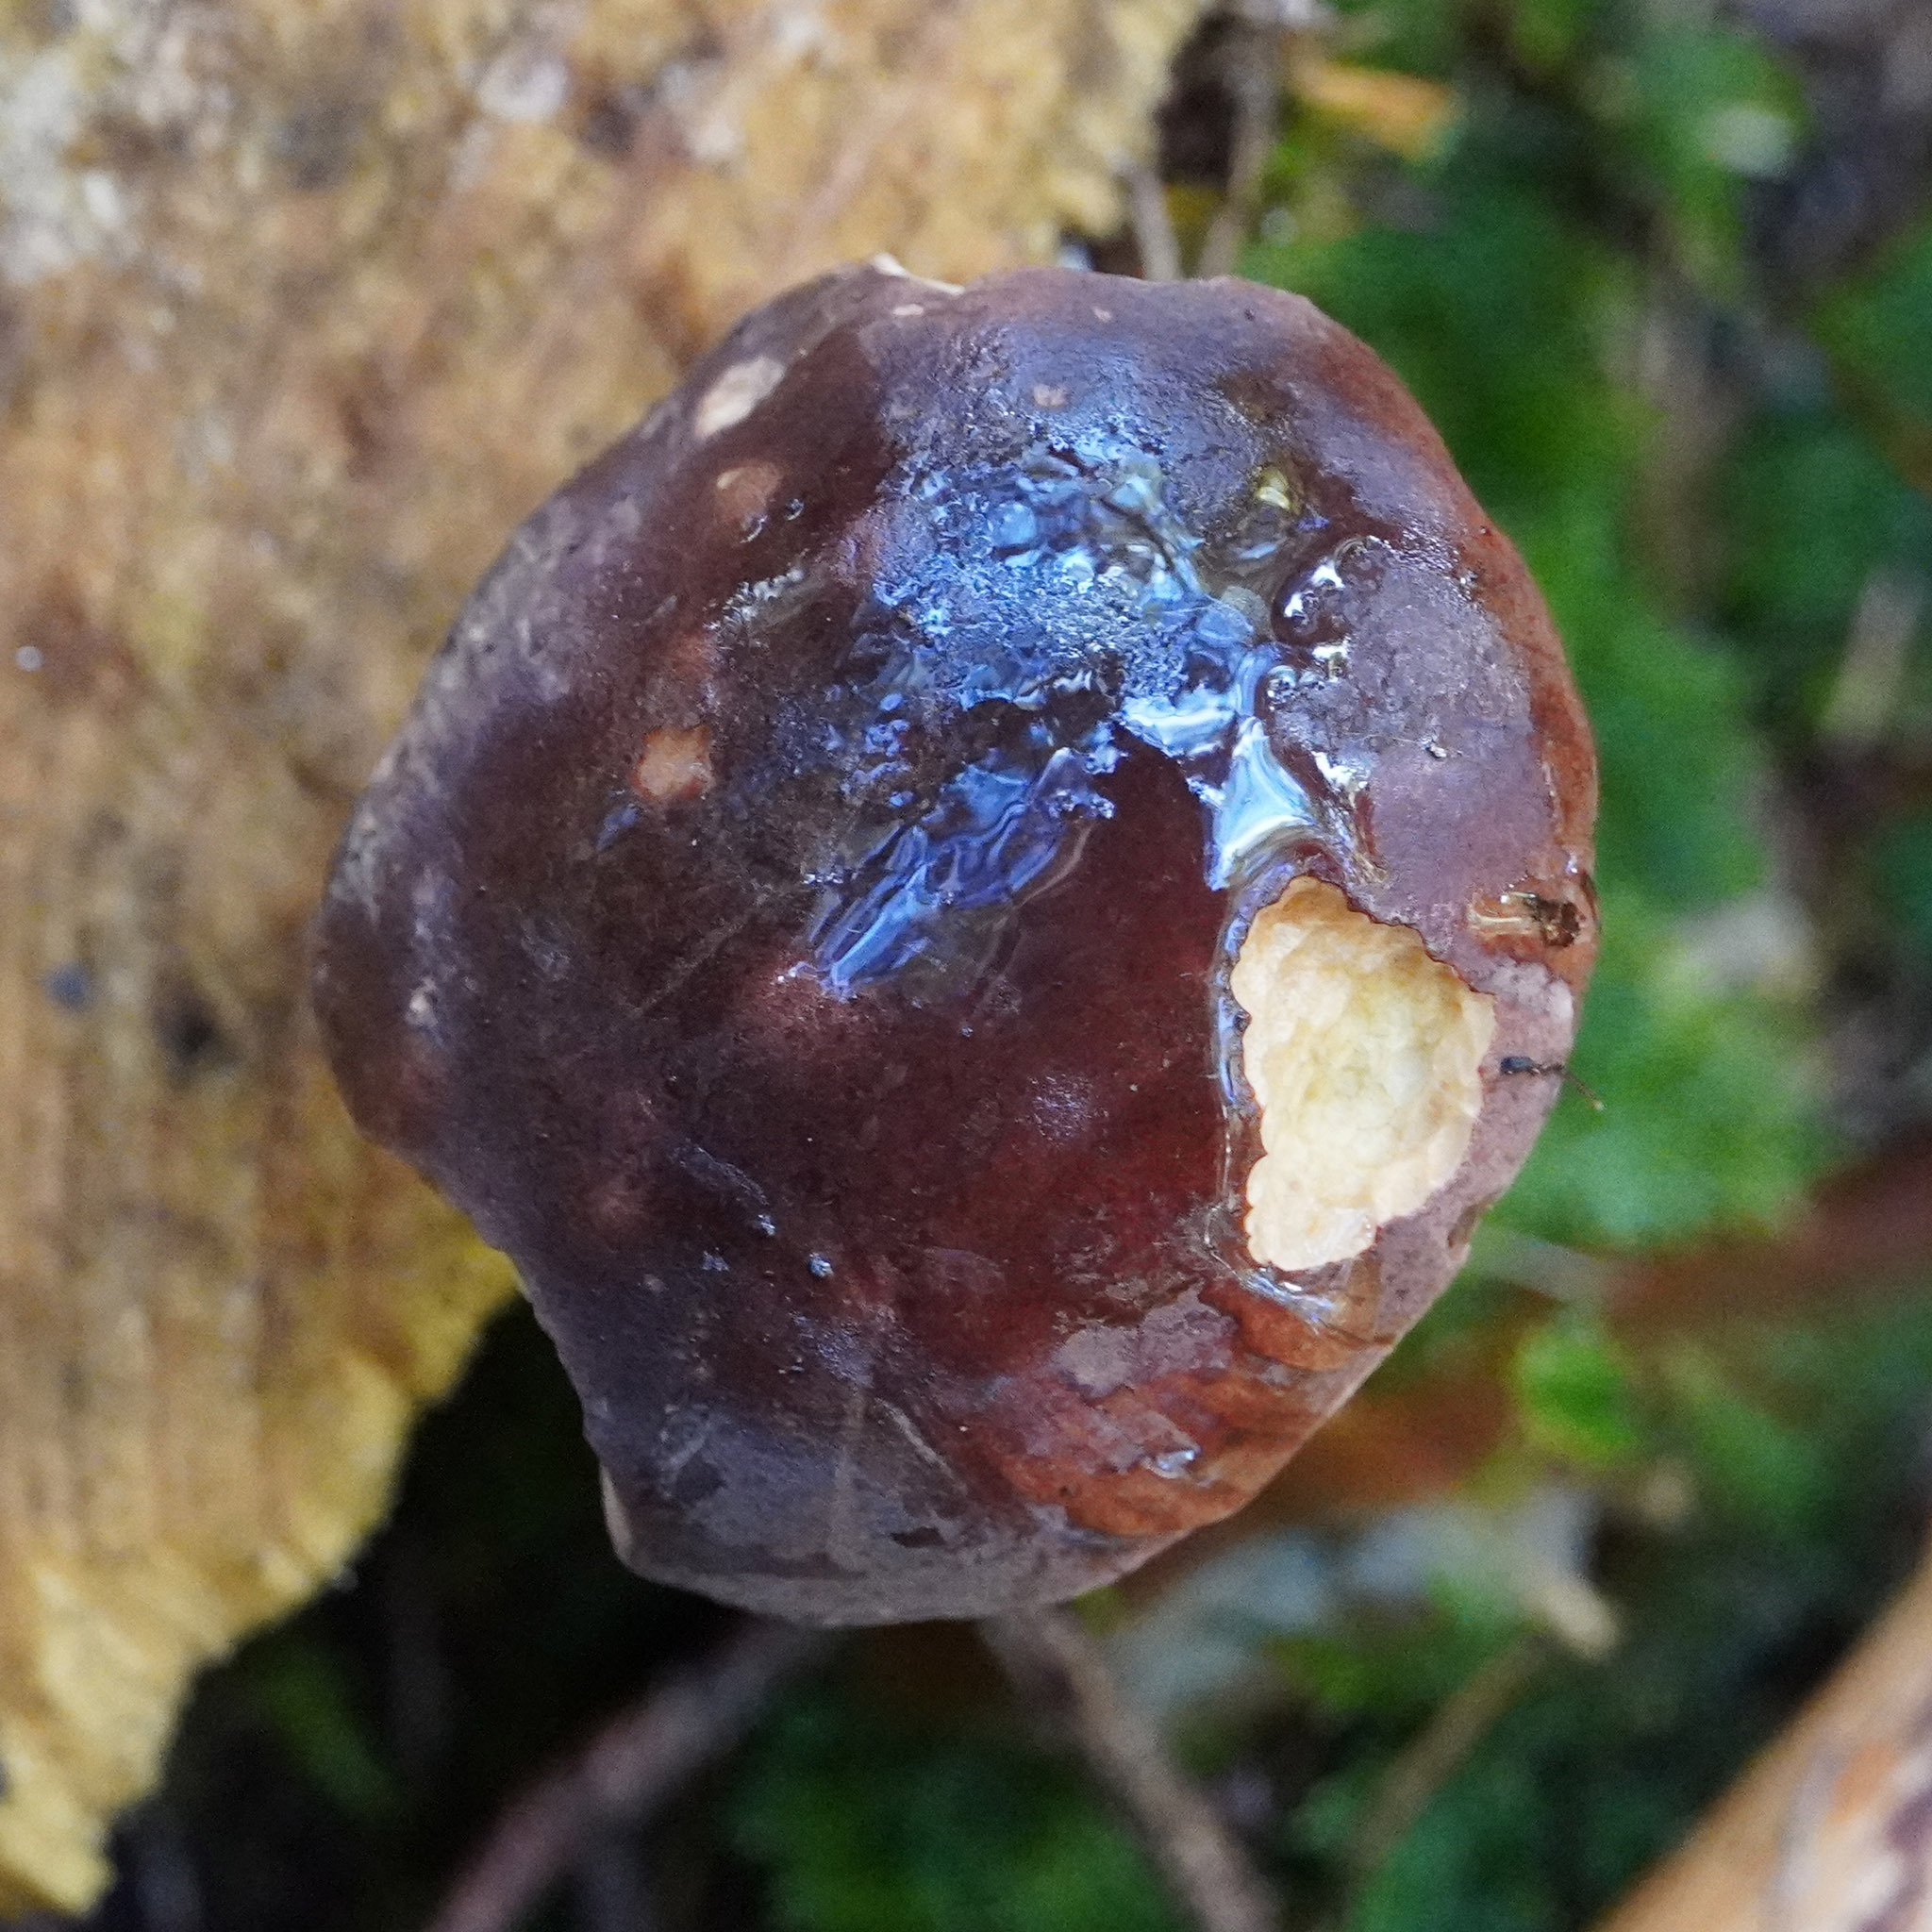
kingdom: Fungi
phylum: Basidiomycota
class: Agaricomycetes
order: Boletales
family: Boletaceae
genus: Imleria
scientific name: Imleria badia
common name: Bay bolete
